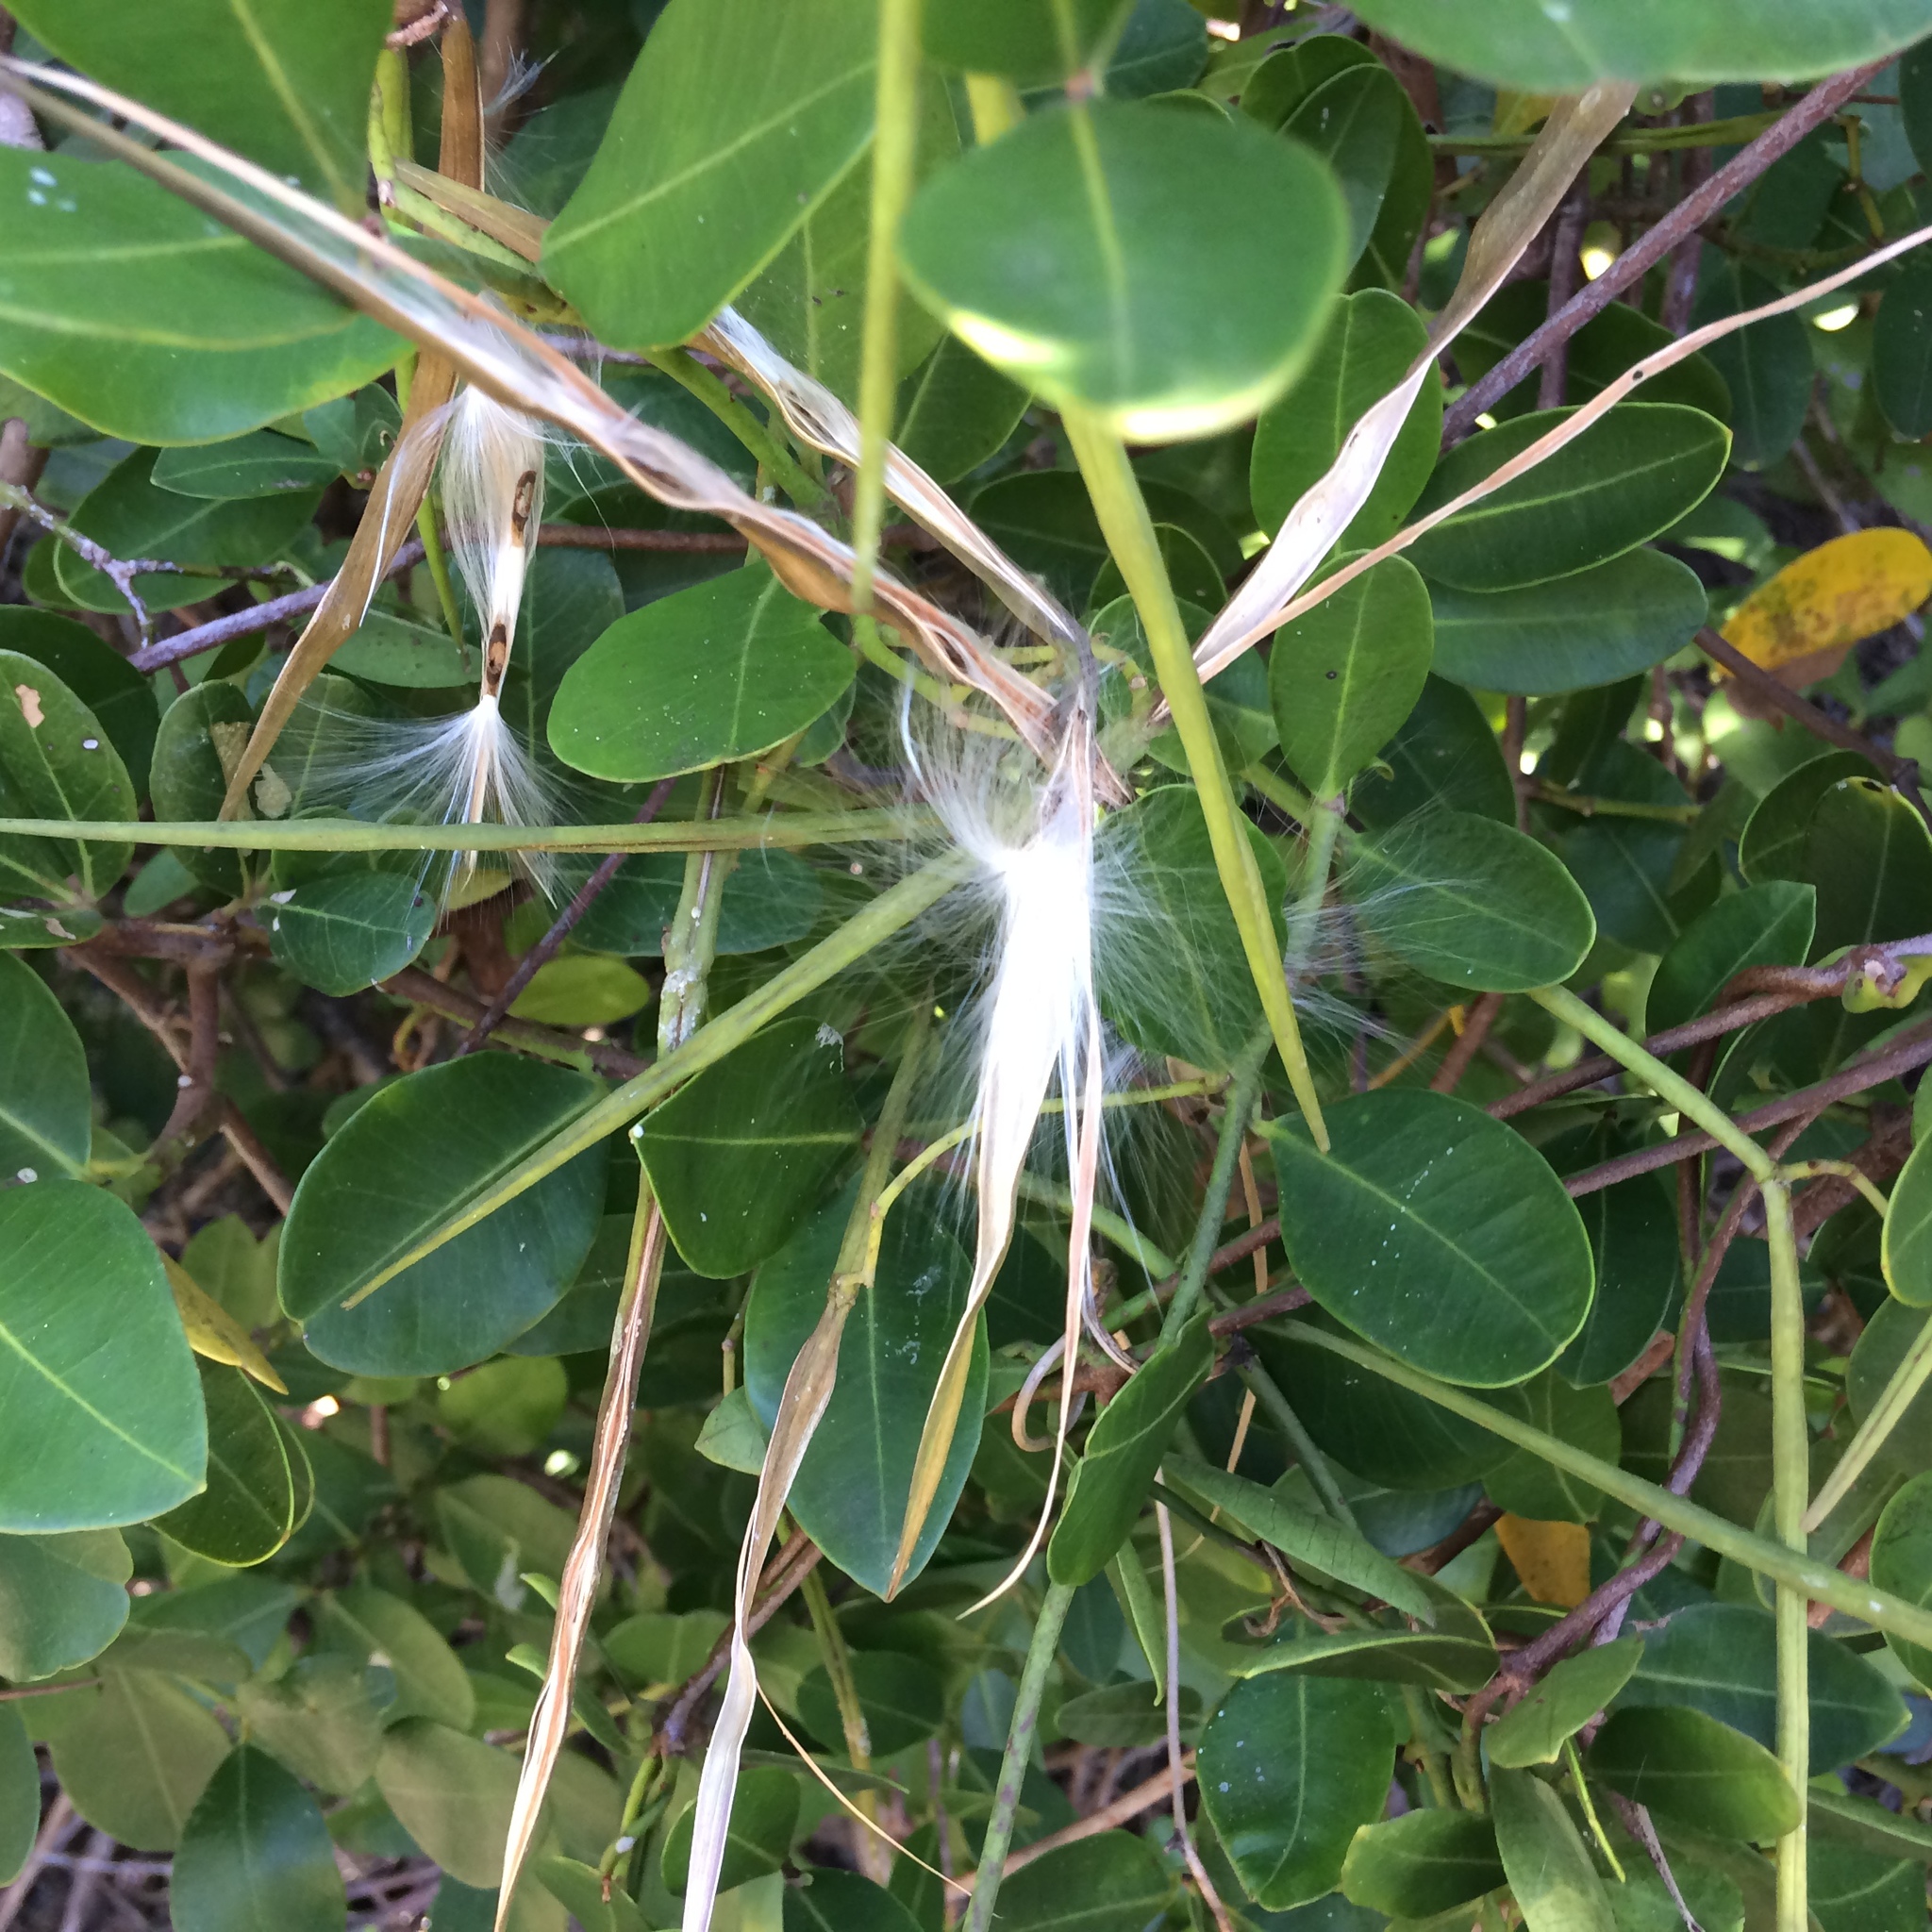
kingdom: Plantae
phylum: Tracheophyta
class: Magnoliopsida
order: Gentianales
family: Apocynaceae
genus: Secamone
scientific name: Secamone alpini
